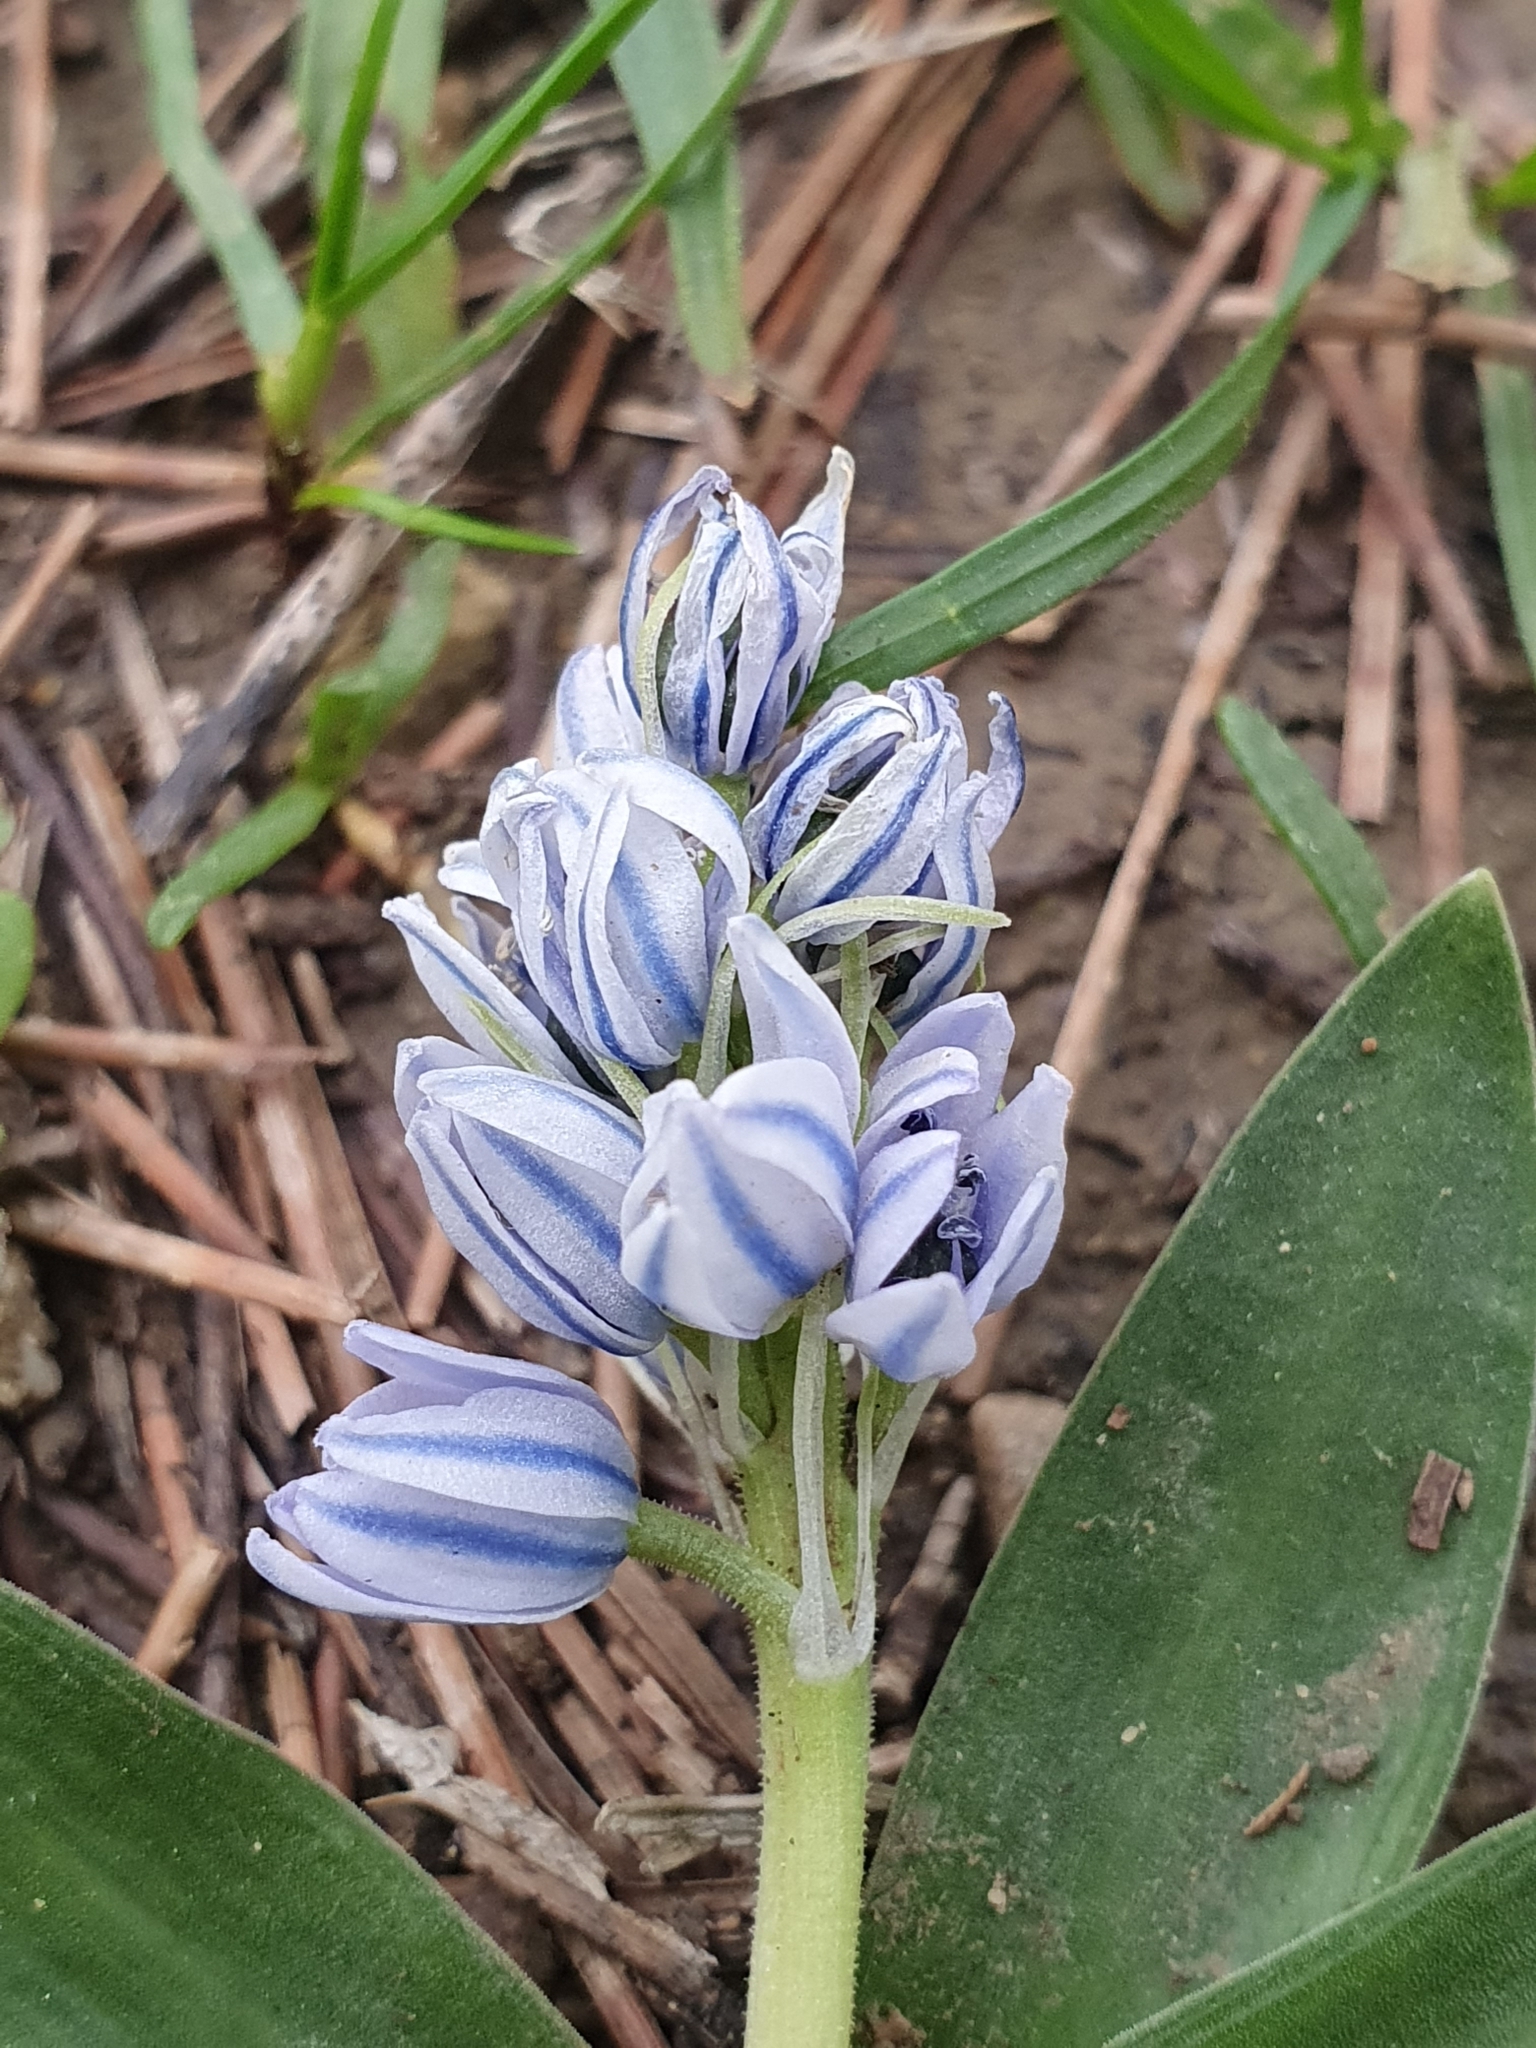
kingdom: Plantae
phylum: Tracheophyta
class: Liliopsida
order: Asparagales
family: Asparagaceae
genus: Hyacinthoides
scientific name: Hyacinthoides lingulata
